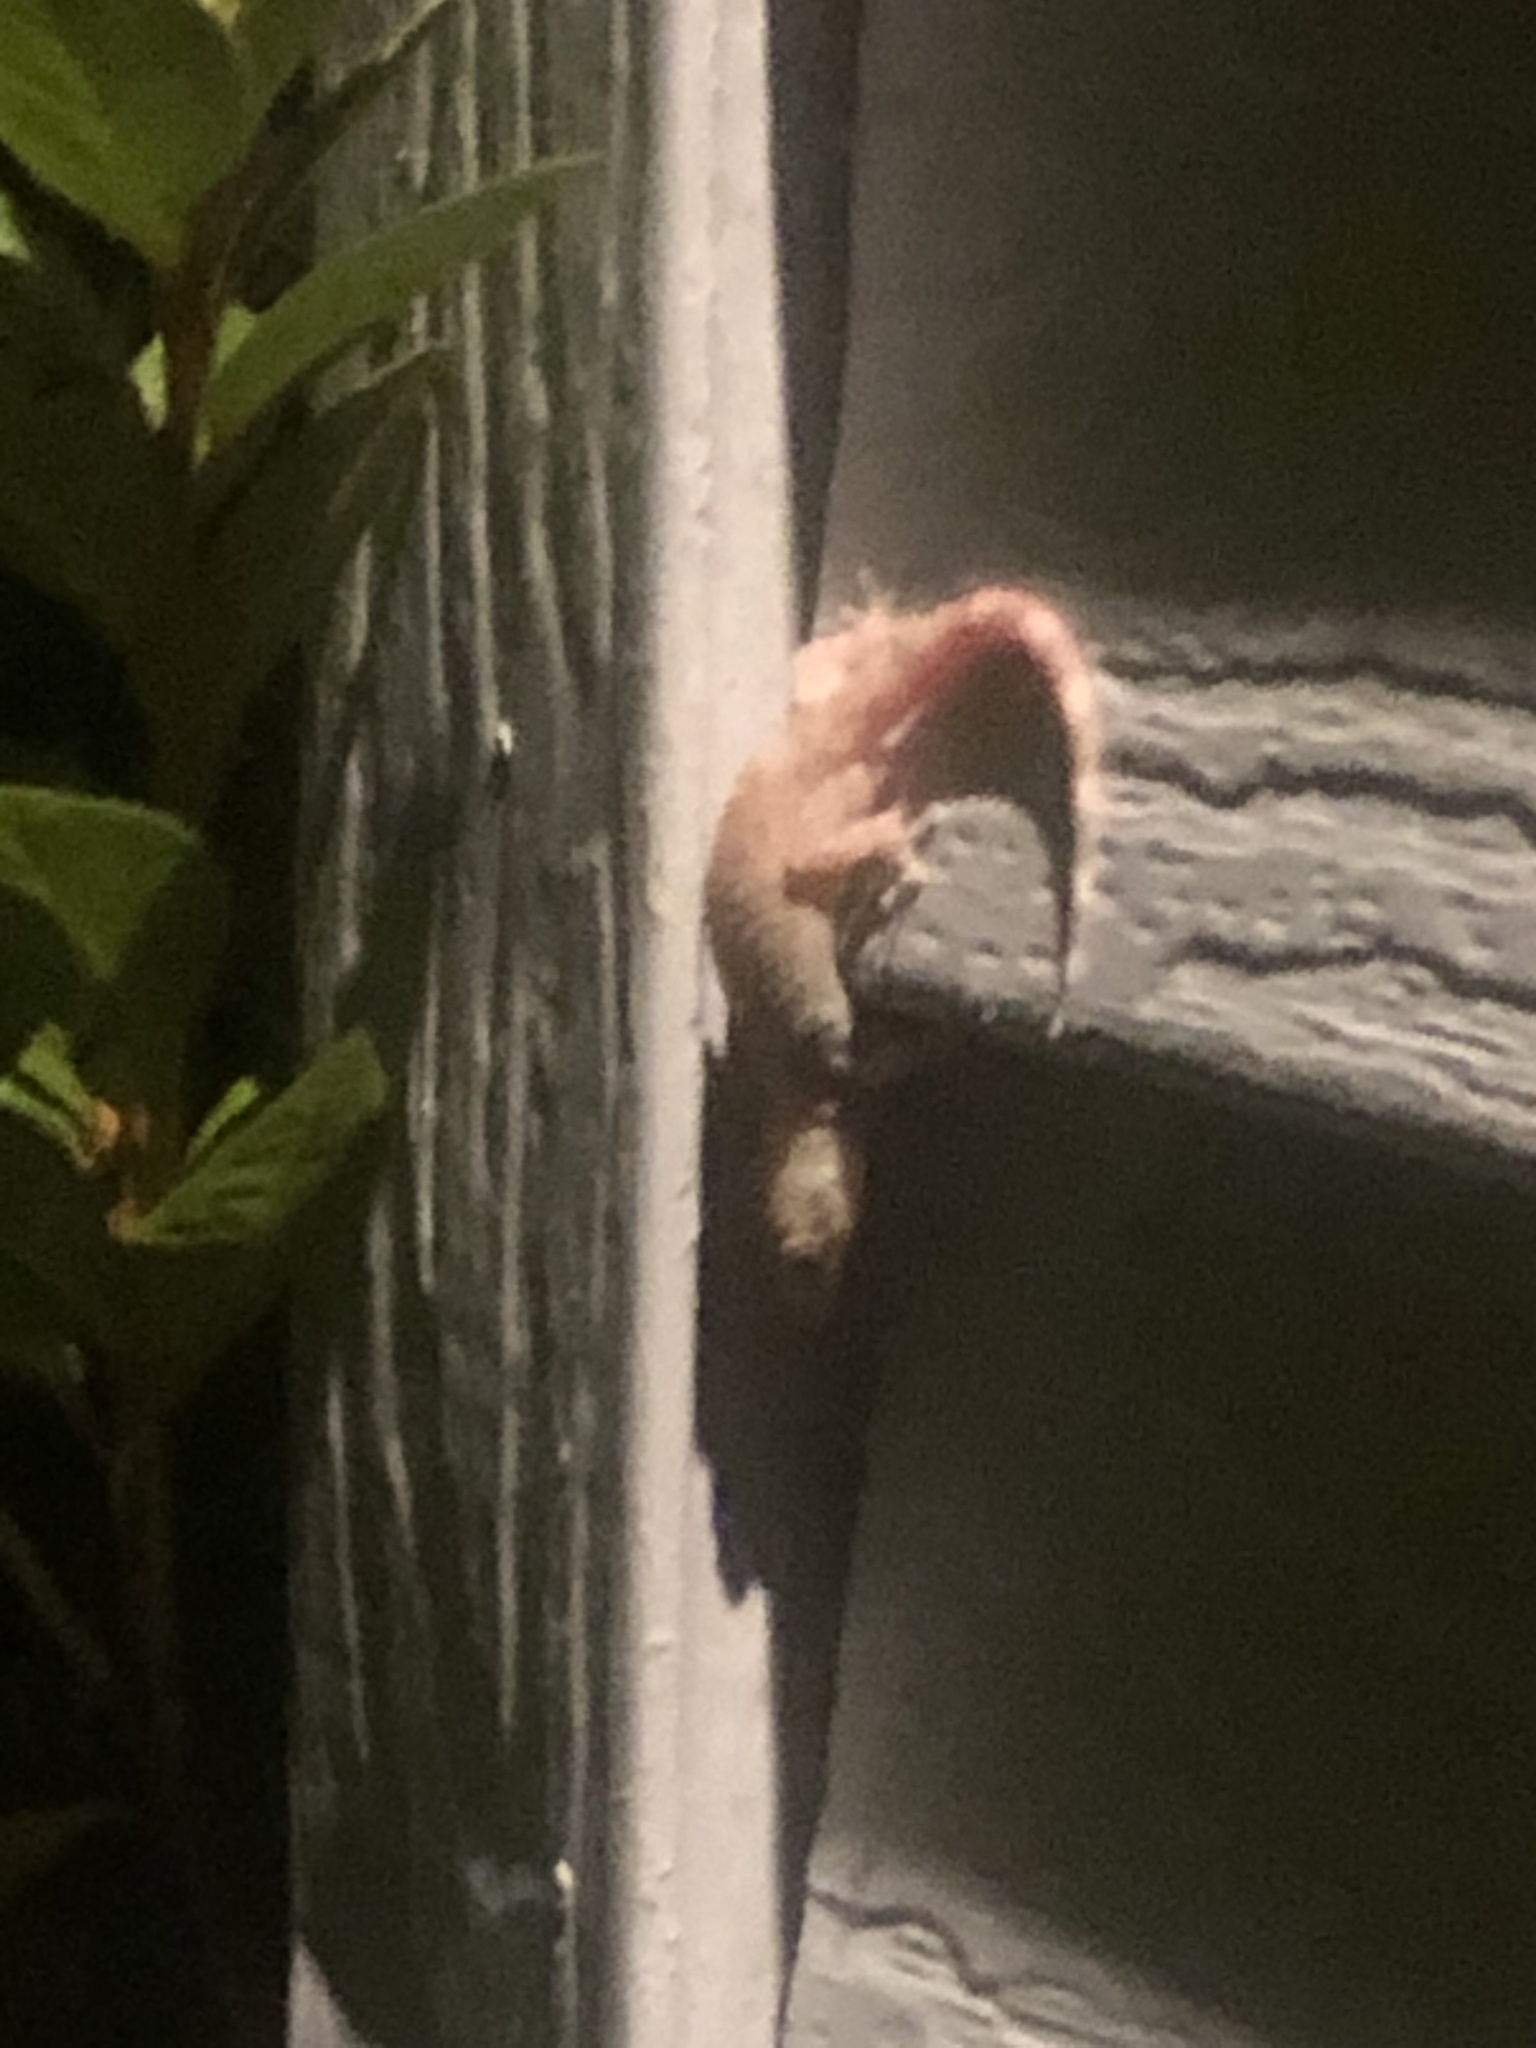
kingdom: Animalia
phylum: Chordata
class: Squamata
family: Gekkonidae
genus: Hemidactylus
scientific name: Hemidactylus turcicus
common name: Turkish gecko
